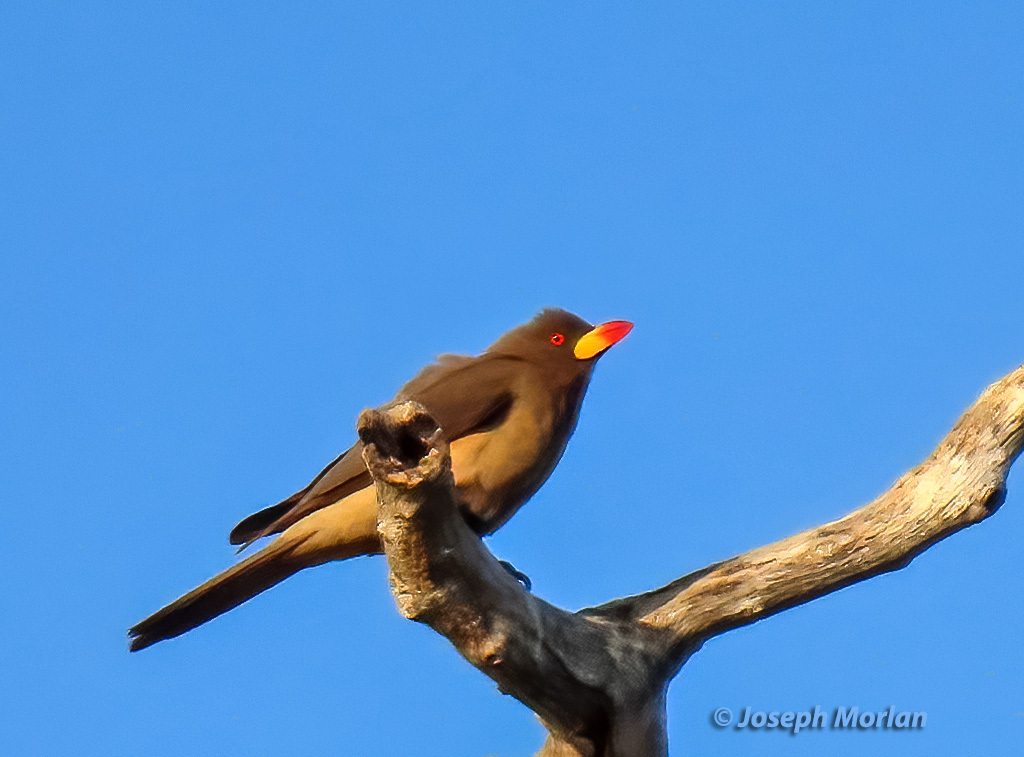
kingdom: Animalia
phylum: Chordata
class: Aves
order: Passeriformes
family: Buphagidae
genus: Buphagus
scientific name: Buphagus africanus
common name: Yellow-billed oxpecker
